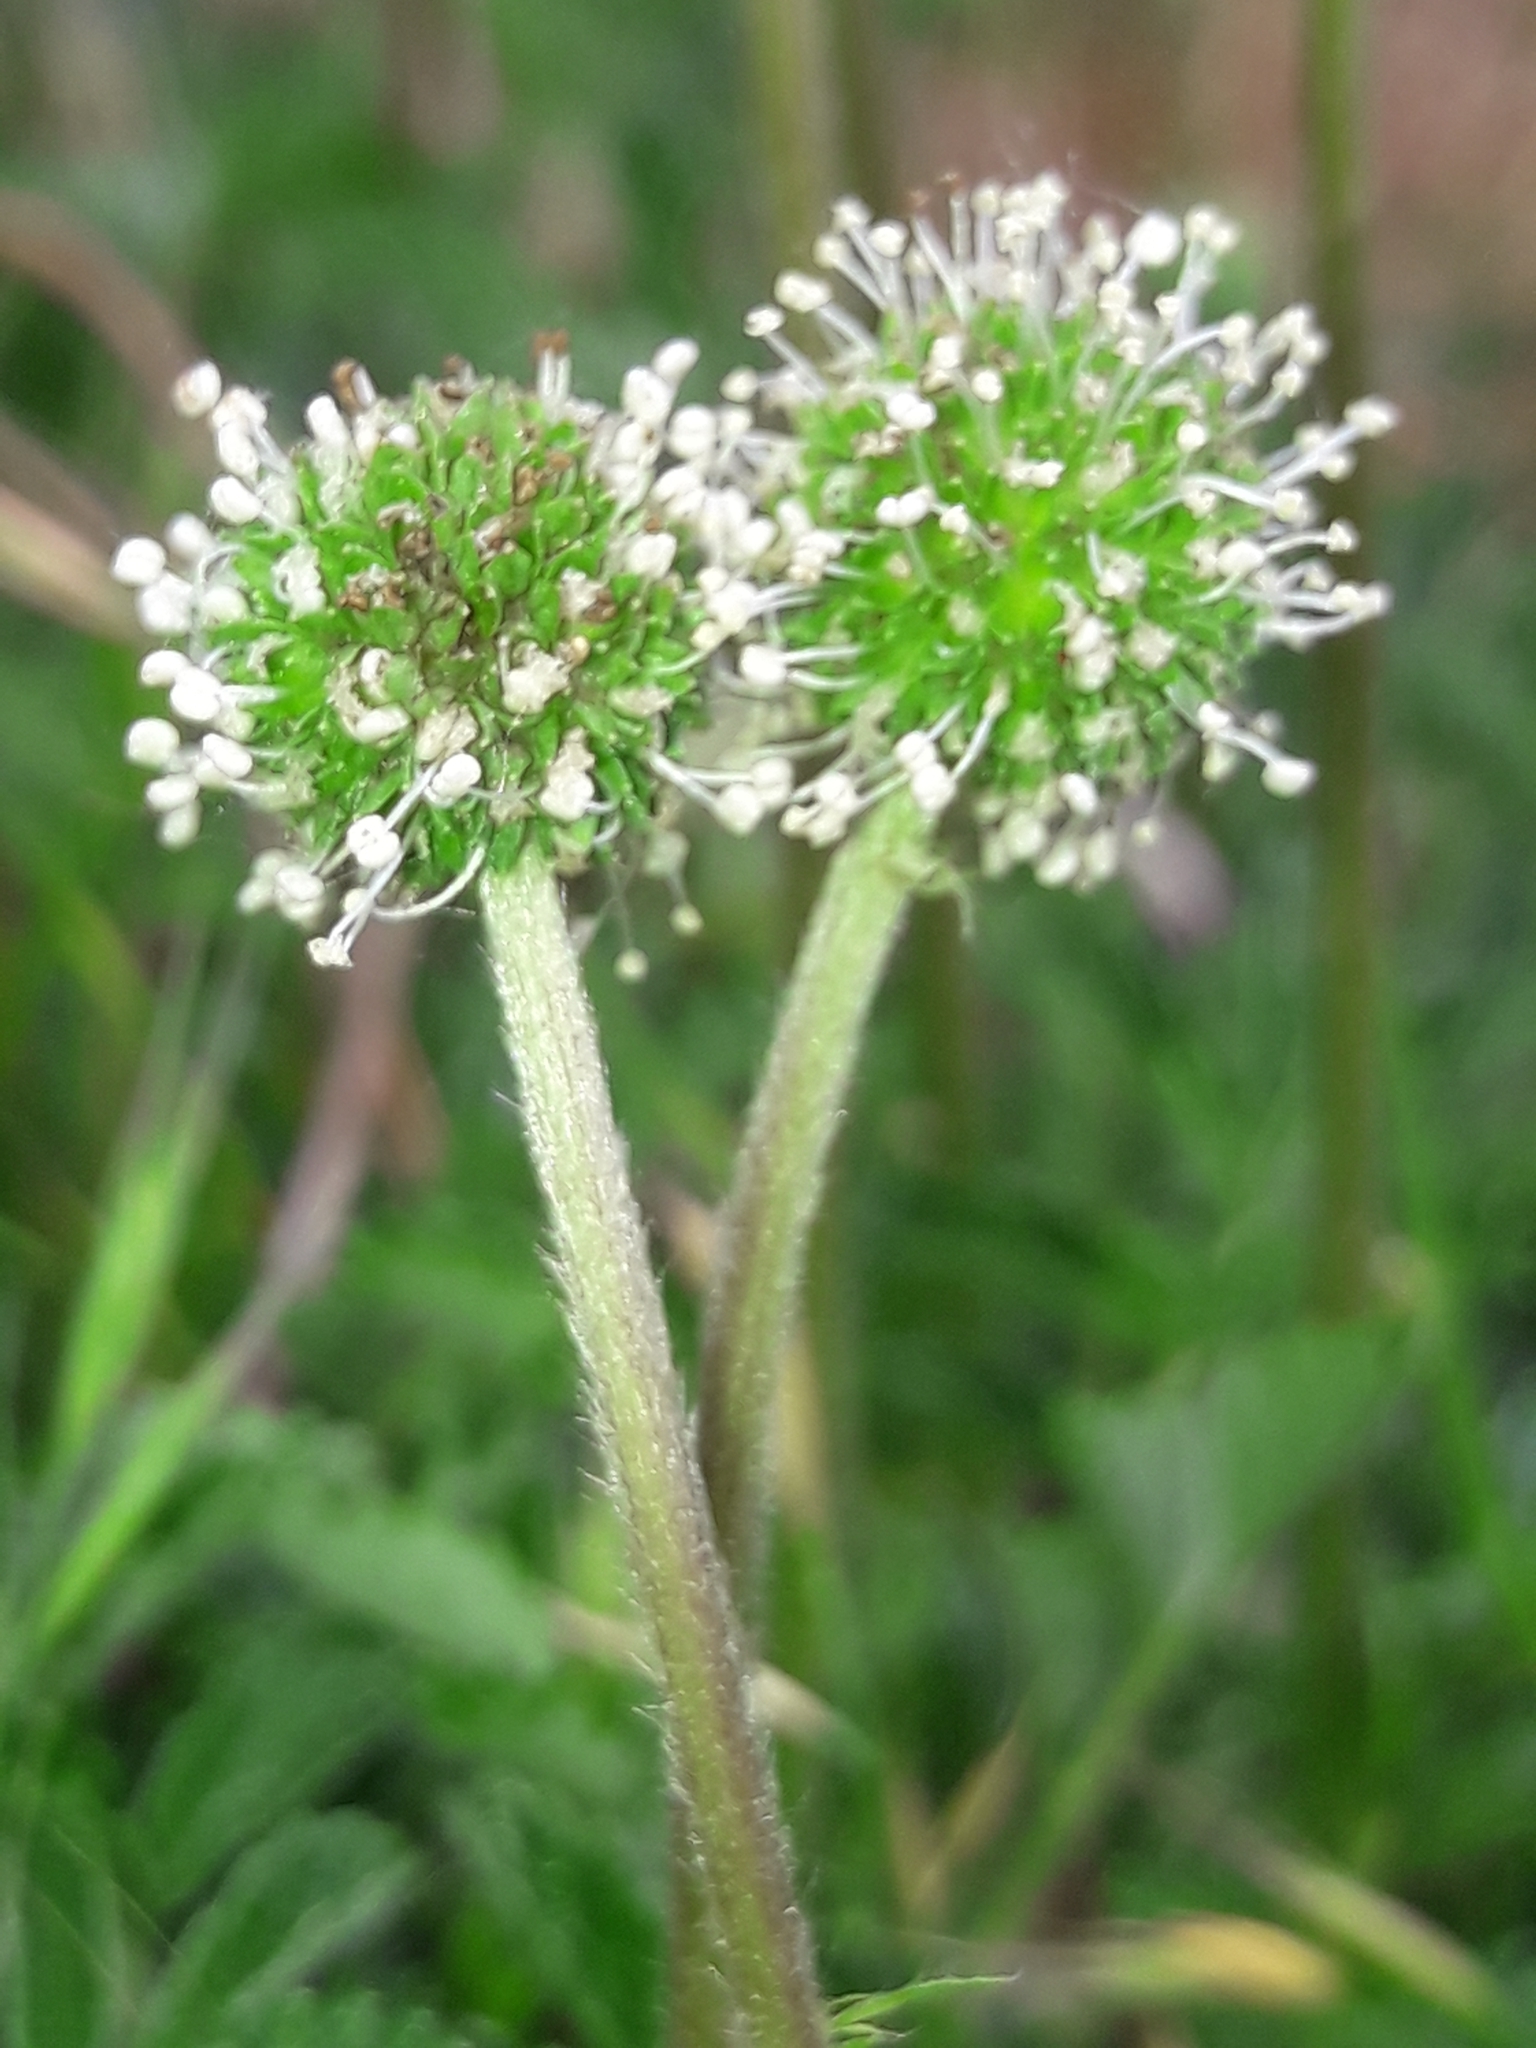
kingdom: Plantae
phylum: Tracheophyta
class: Magnoliopsida
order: Rosales
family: Rosaceae
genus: Acaena
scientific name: Acaena novae-zelandiae
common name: Pirri-pirri-bur
